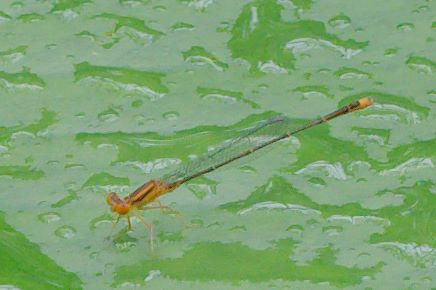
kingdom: Animalia
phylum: Arthropoda
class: Insecta
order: Odonata
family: Coenagrionidae
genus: Enallagma
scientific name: Enallagma pollutum
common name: Florida bluet
